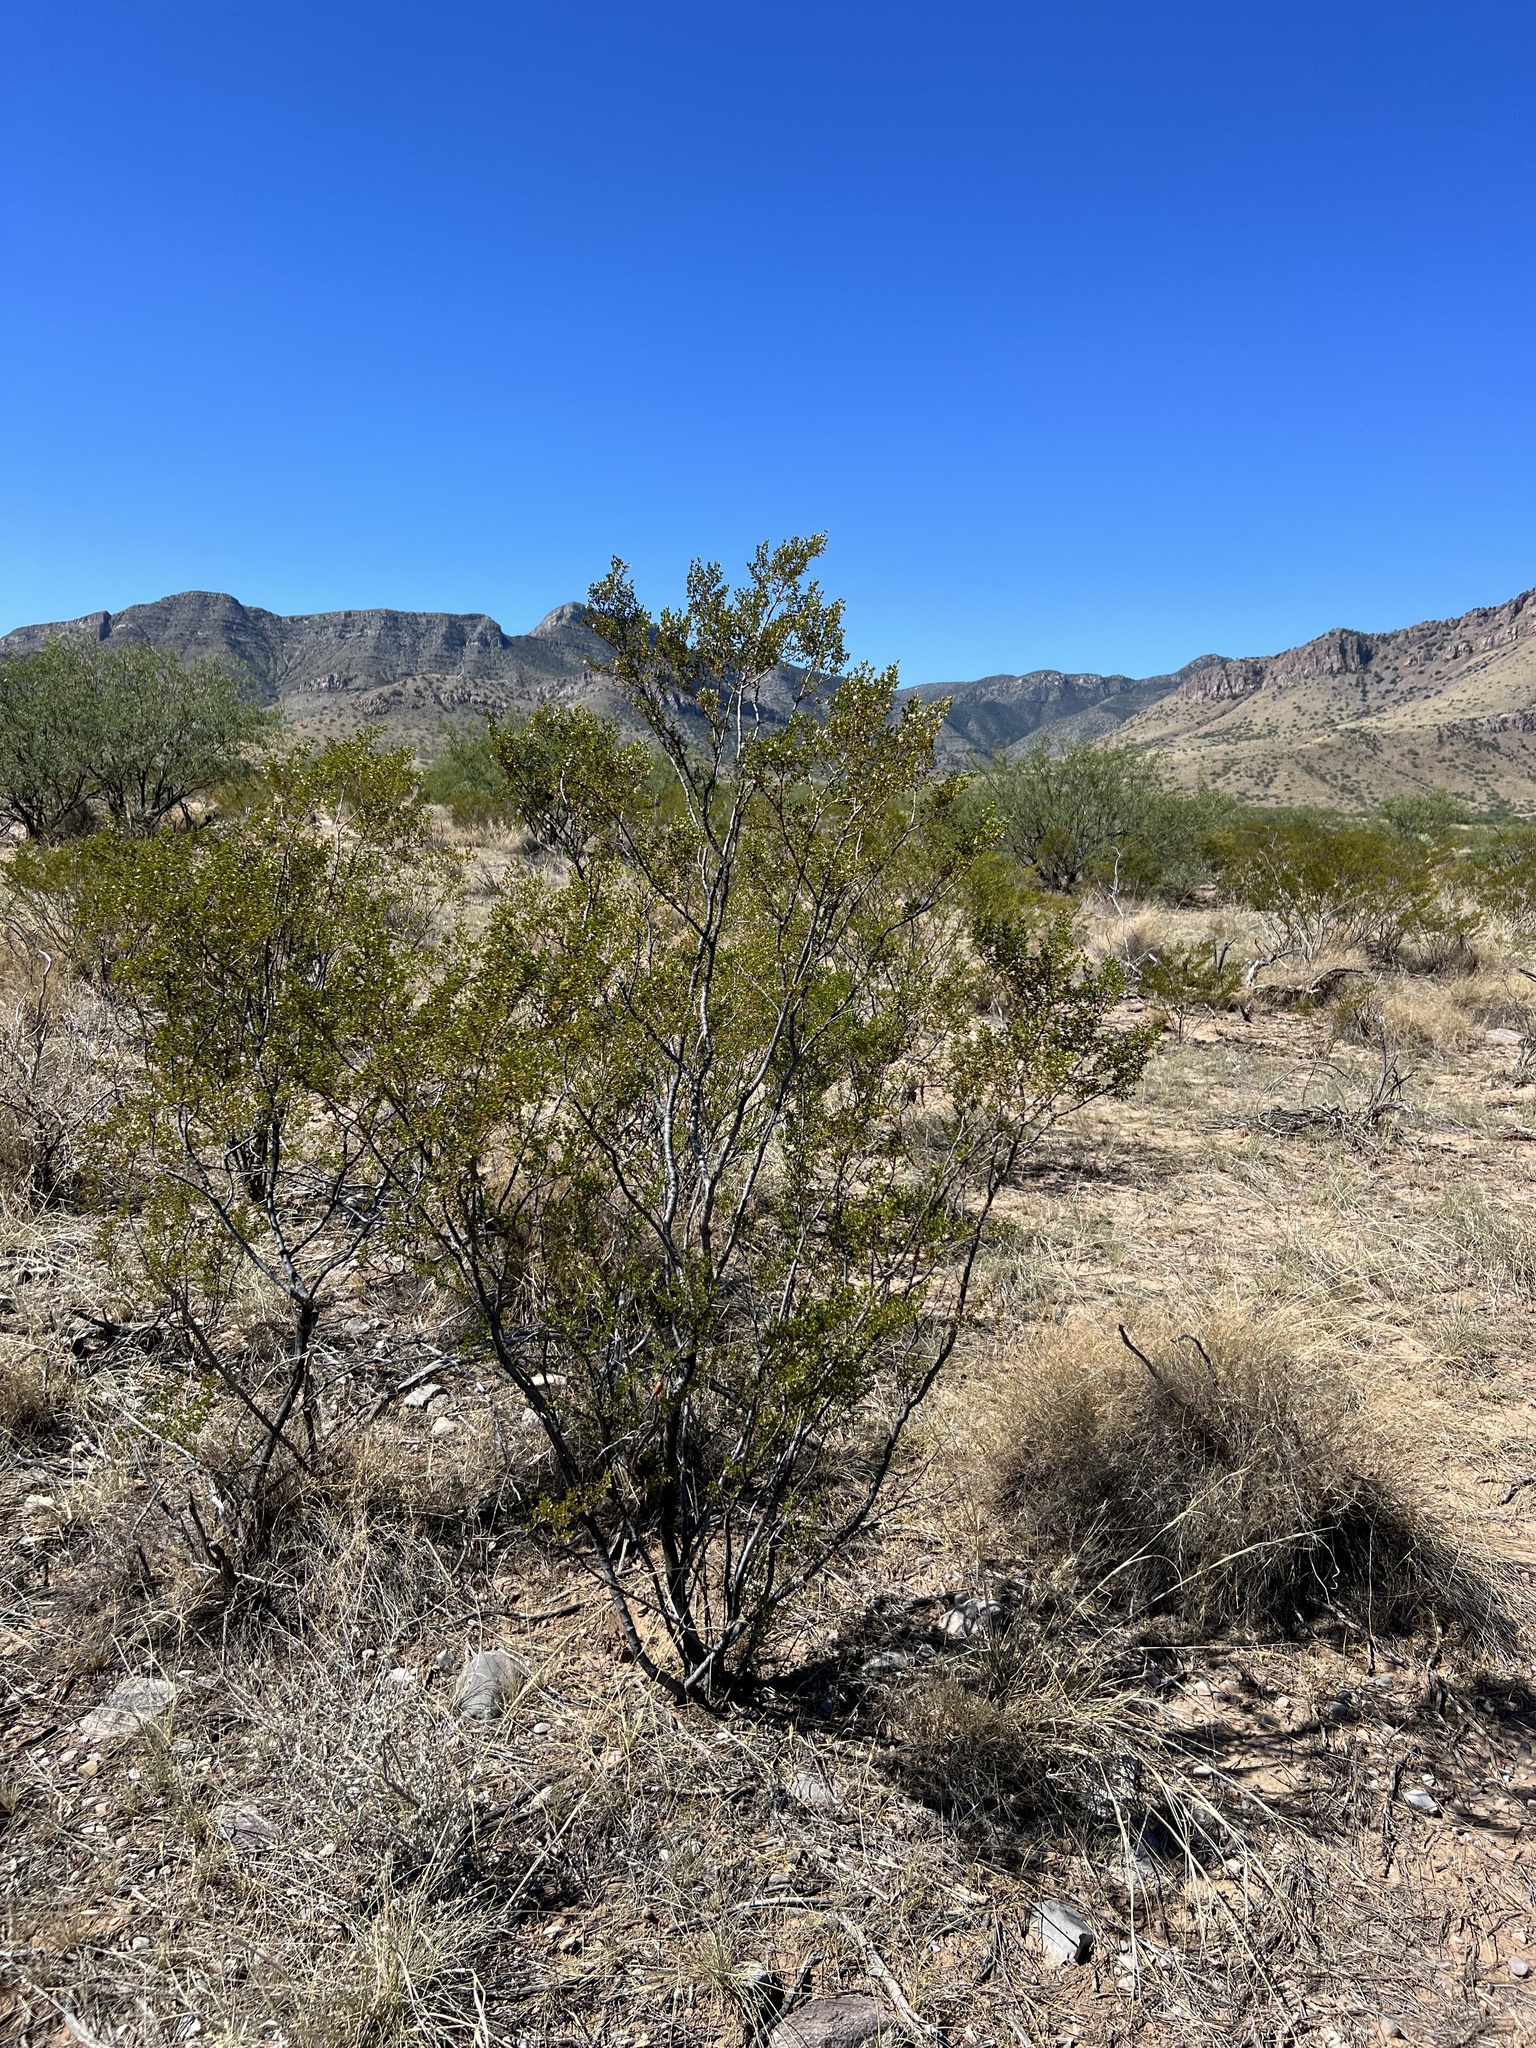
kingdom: Plantae
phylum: Tracheophyta
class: Magnoliopsida
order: Zygophyllales
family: Zygophyllaceae
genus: Larrea
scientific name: Larrea tridentata
